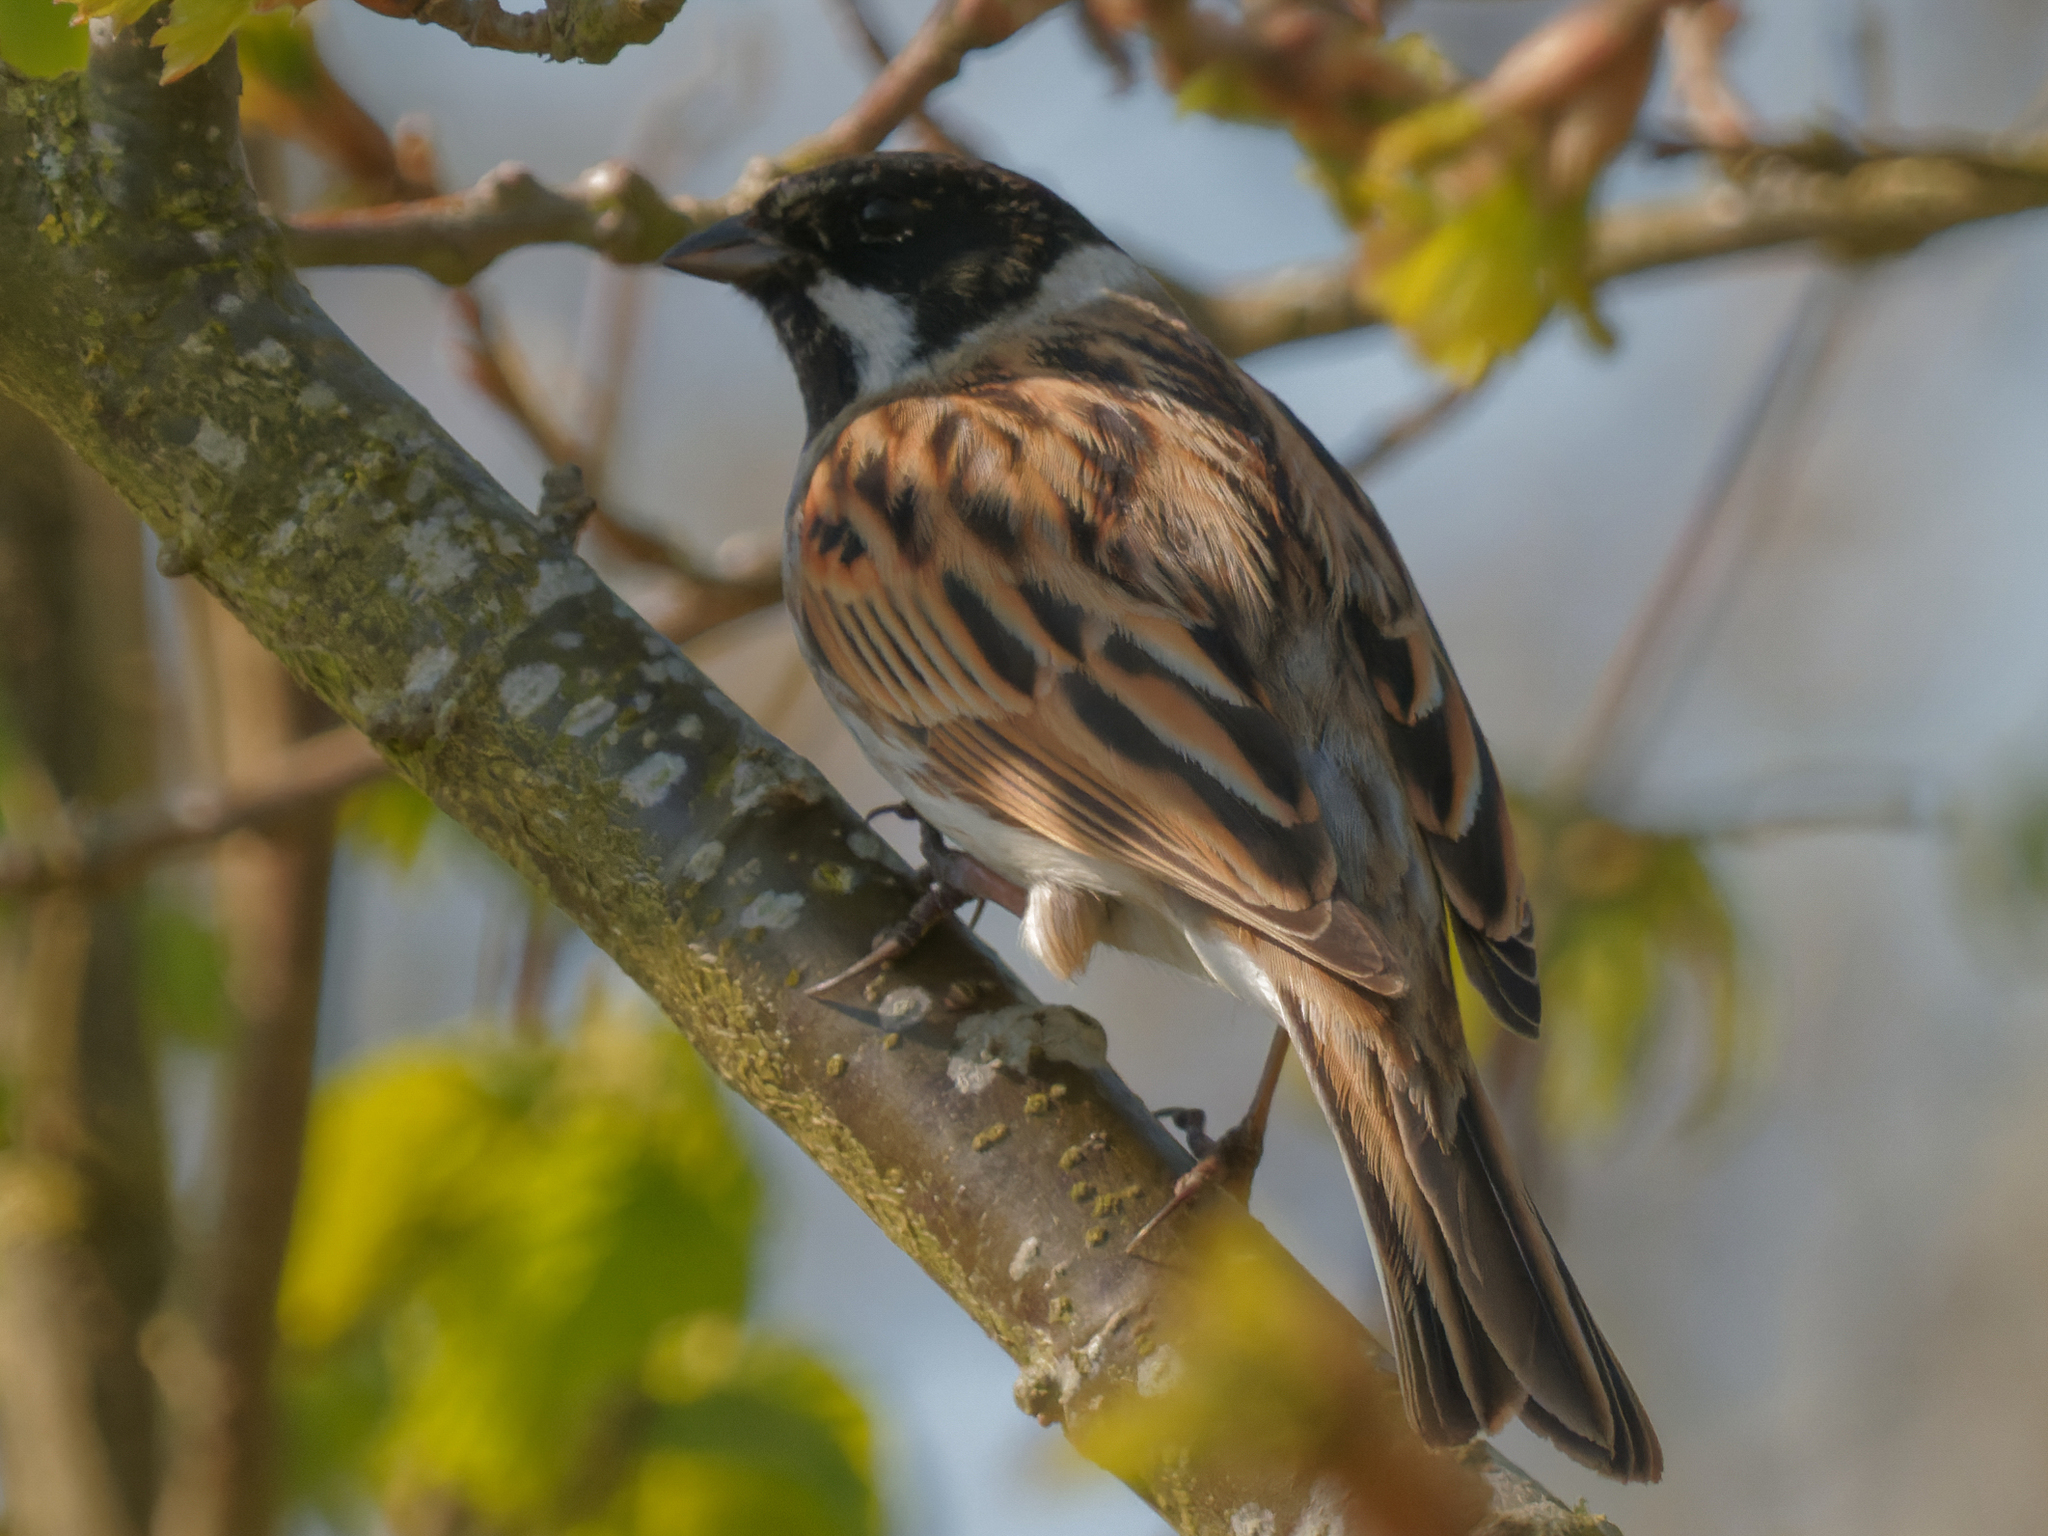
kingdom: Animalia
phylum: Chordata
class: Aves
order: Passeriformes
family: Emberizidae
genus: Emberiza
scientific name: Emberiza schoeniclus
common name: Reed bunting
